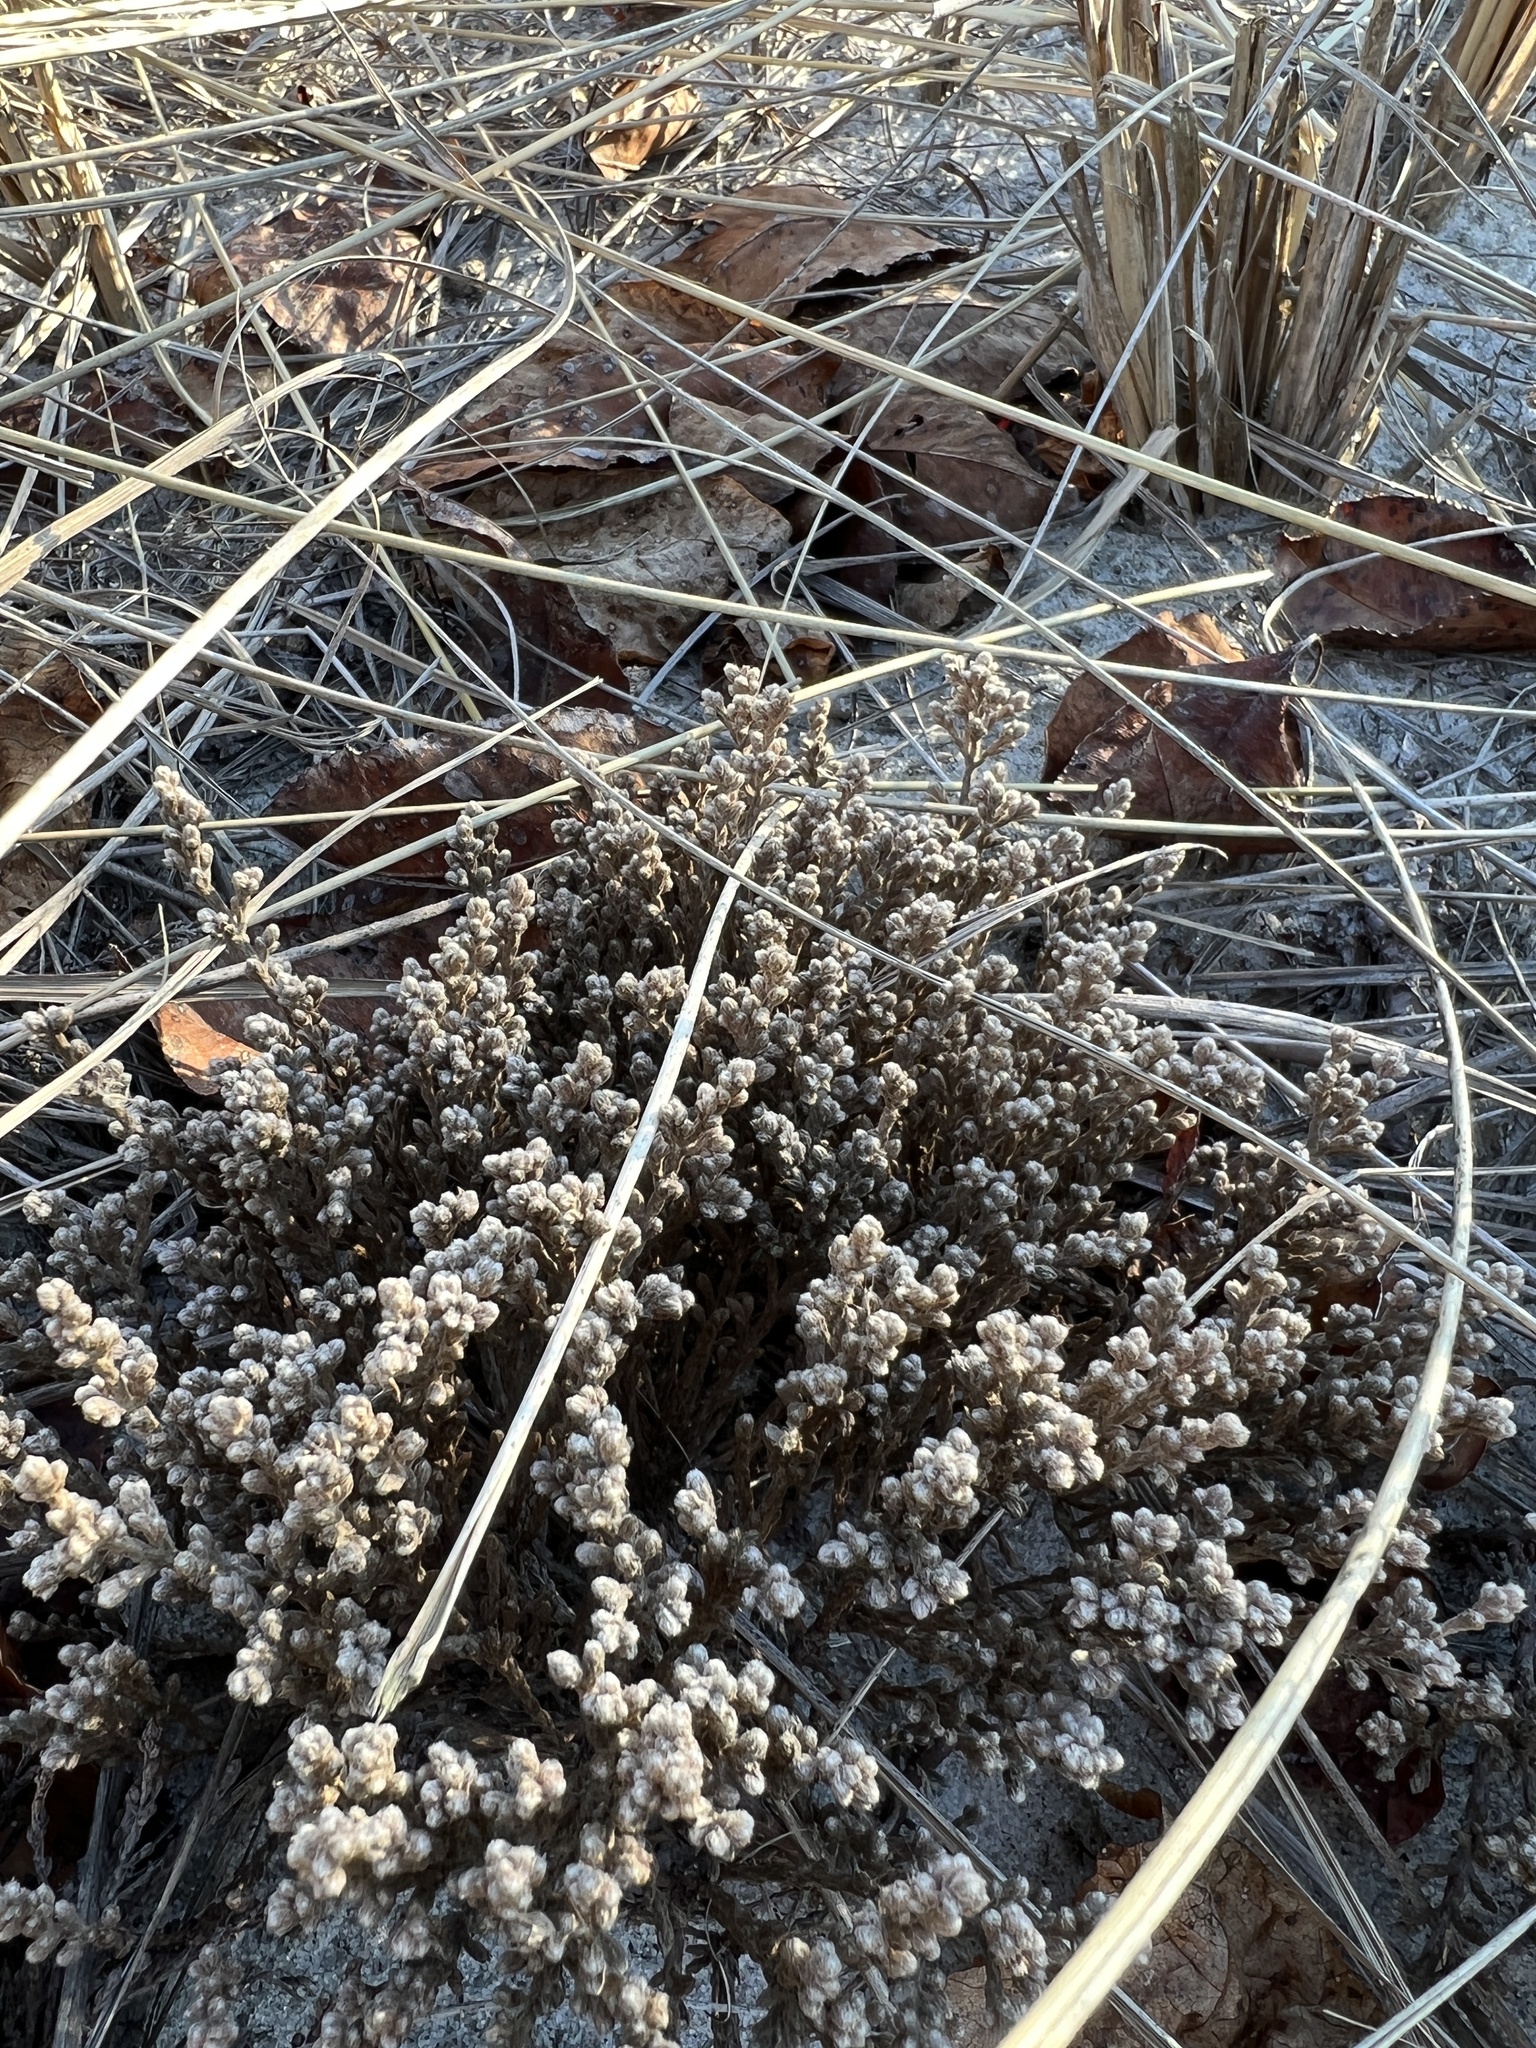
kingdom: Plantae
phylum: Tracheophyta
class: Magnoliopsida
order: Malvales
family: Cistaceae
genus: Hudsonia
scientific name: Hudsonia tomentosa
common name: Beach-heath
